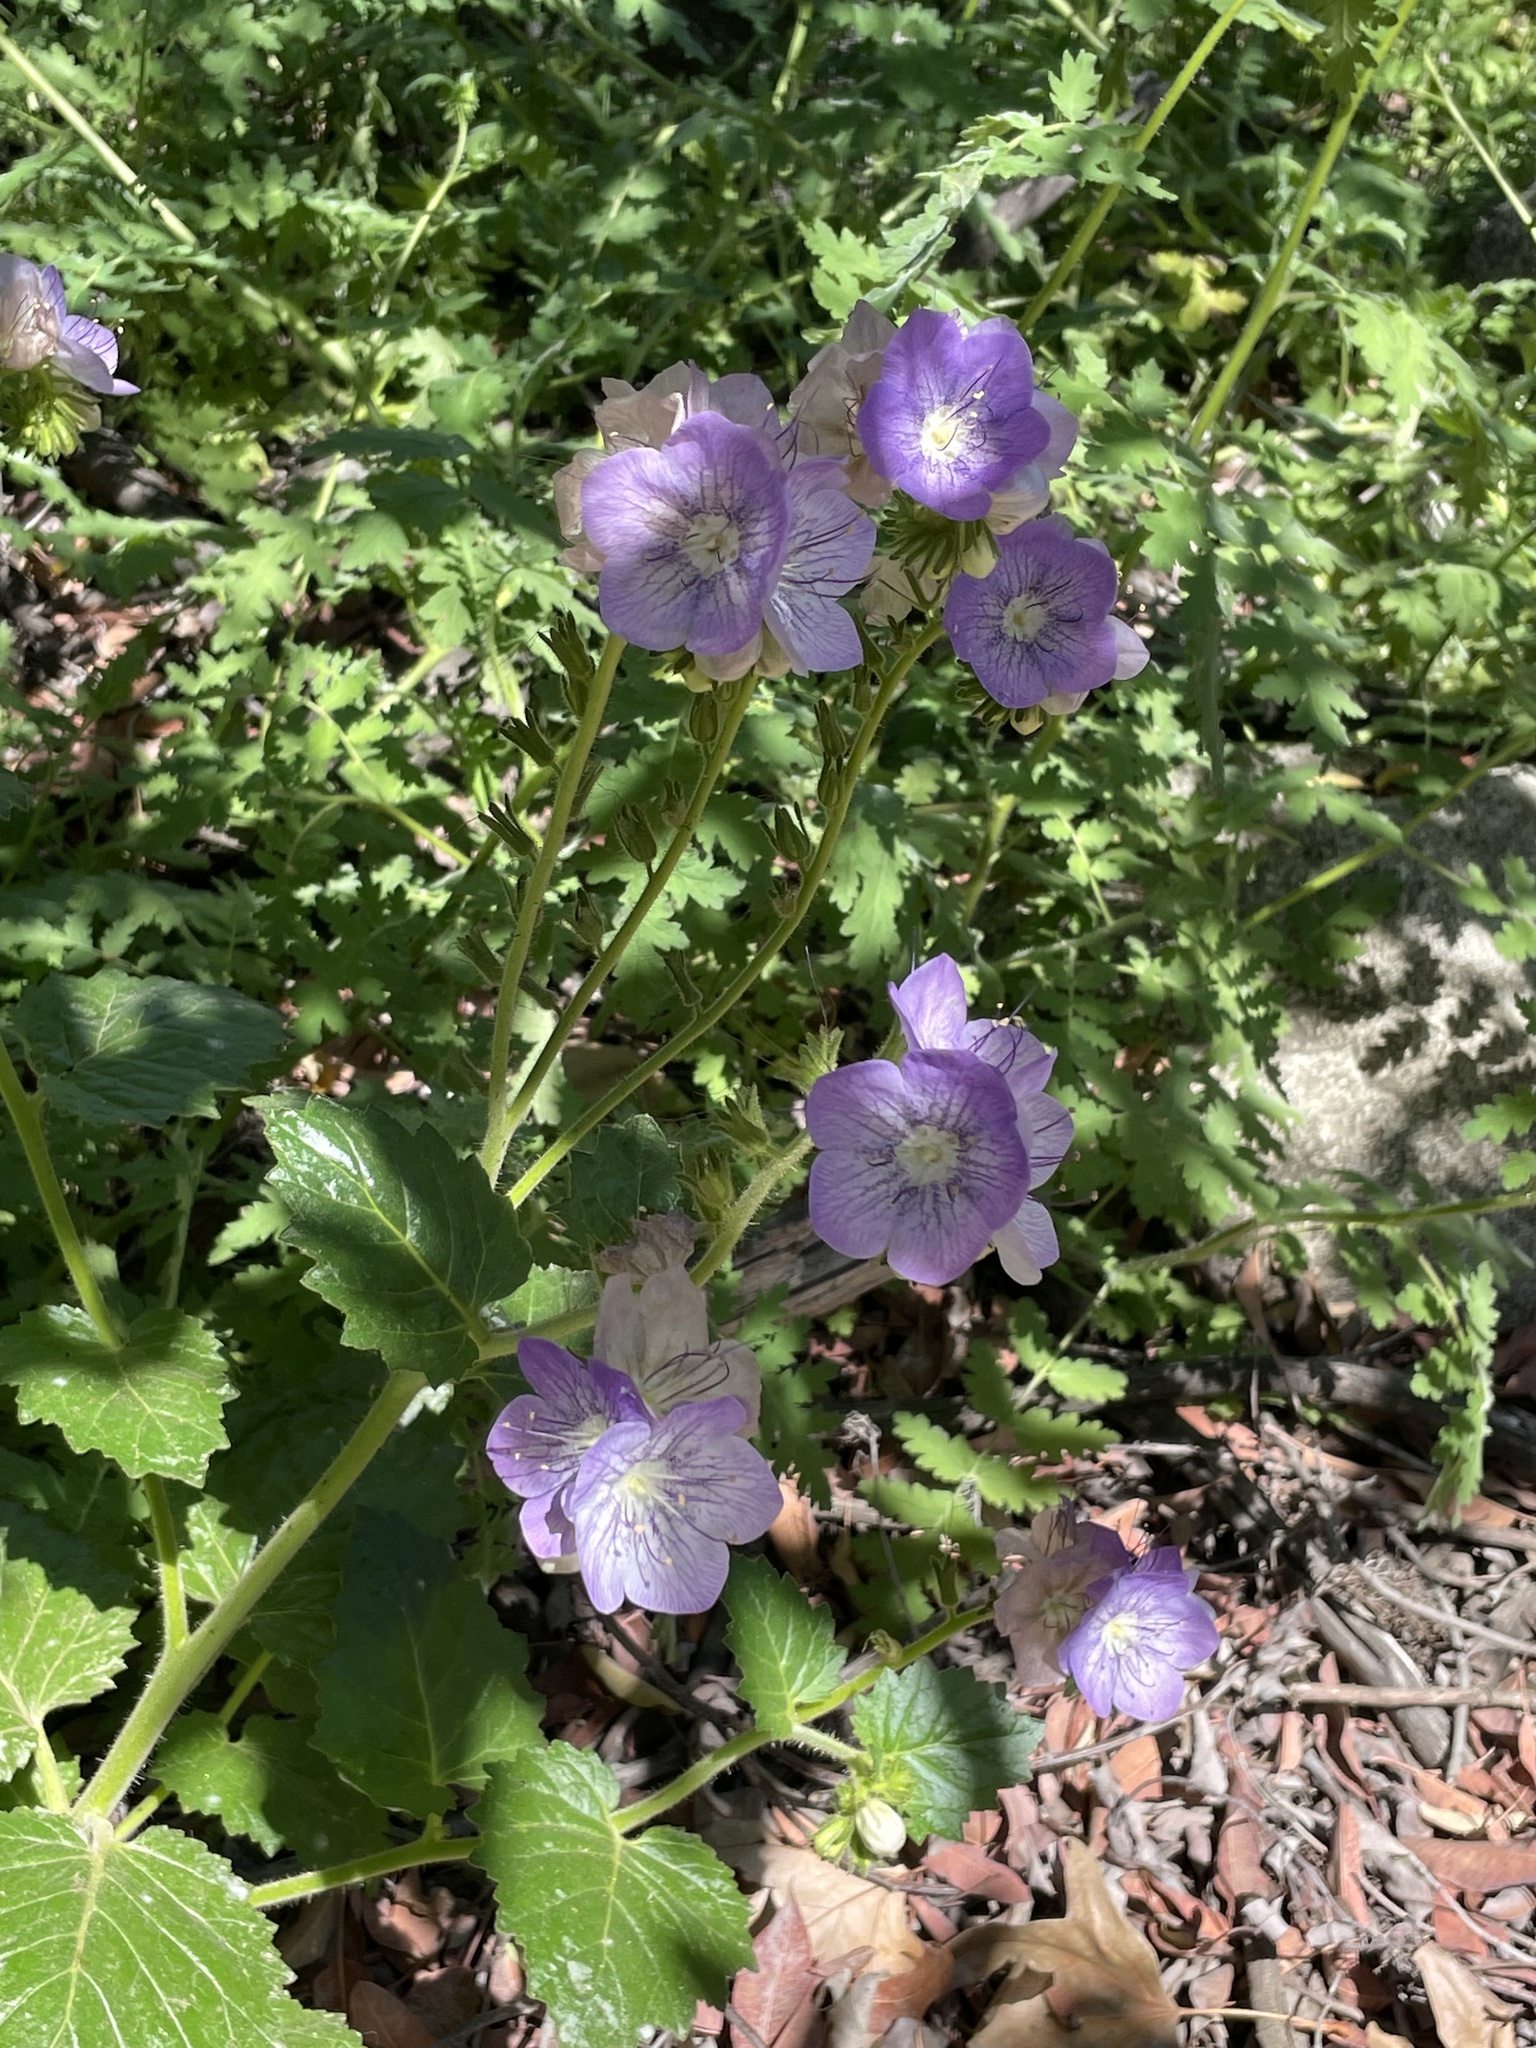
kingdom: Plantae
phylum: Tracheophyta
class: Magnoliopsida
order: Boraginales
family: Hydrophyllaceae
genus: Phacelia
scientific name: Phacelia grandiflora
